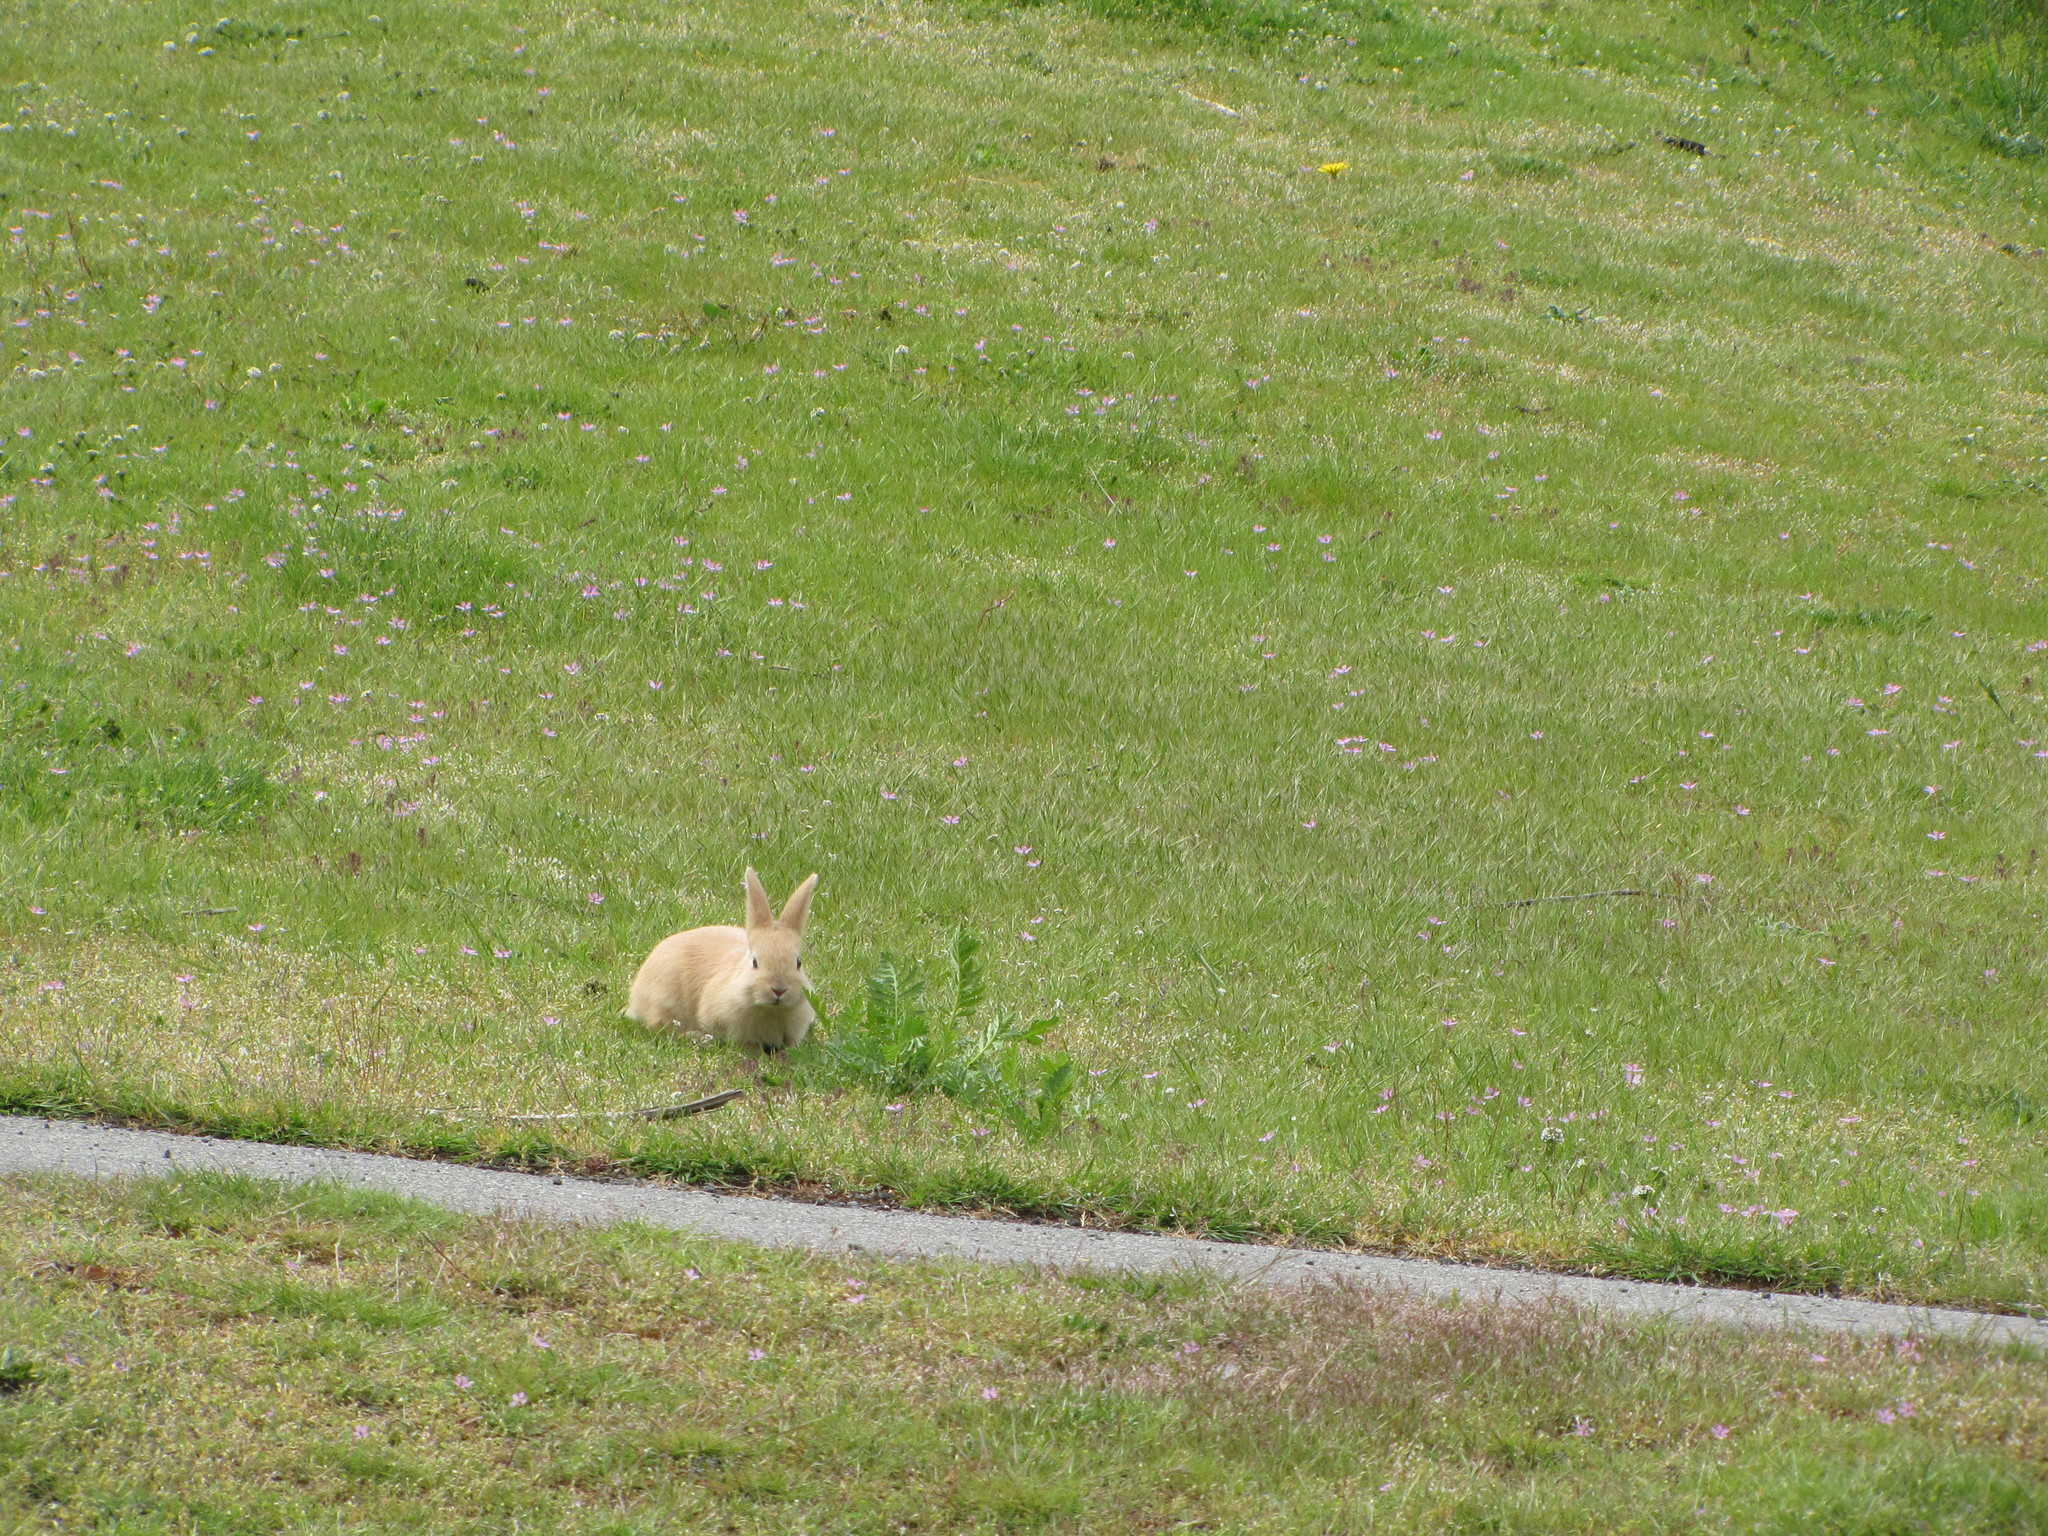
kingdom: Animalia
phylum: Chordata
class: Mammalia
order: Lagomorpha
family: Leporidae
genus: Oryctolagus
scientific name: Oryctolagus cuniculus
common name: European rabbit
